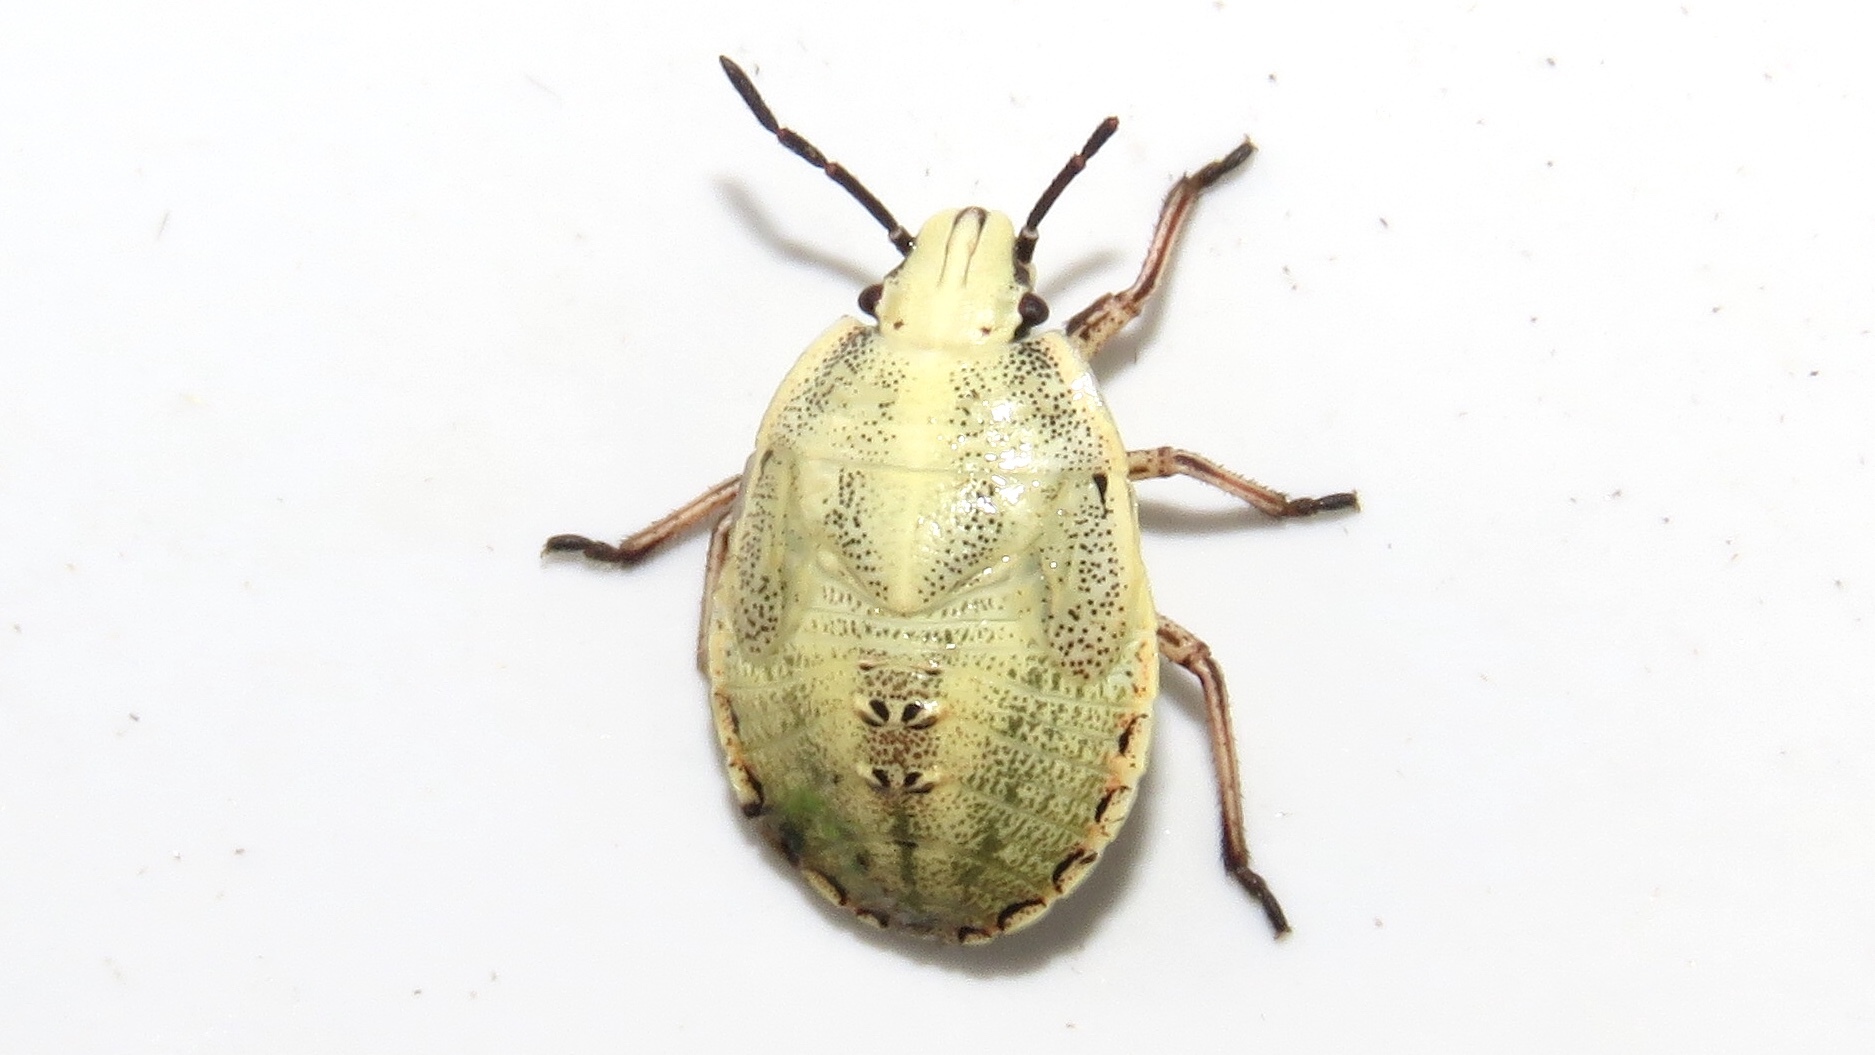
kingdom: Animalia
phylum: Arthropoda
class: Insecta
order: Hemiptera
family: Pentatomidae
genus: Coenus
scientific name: Coenus delius
